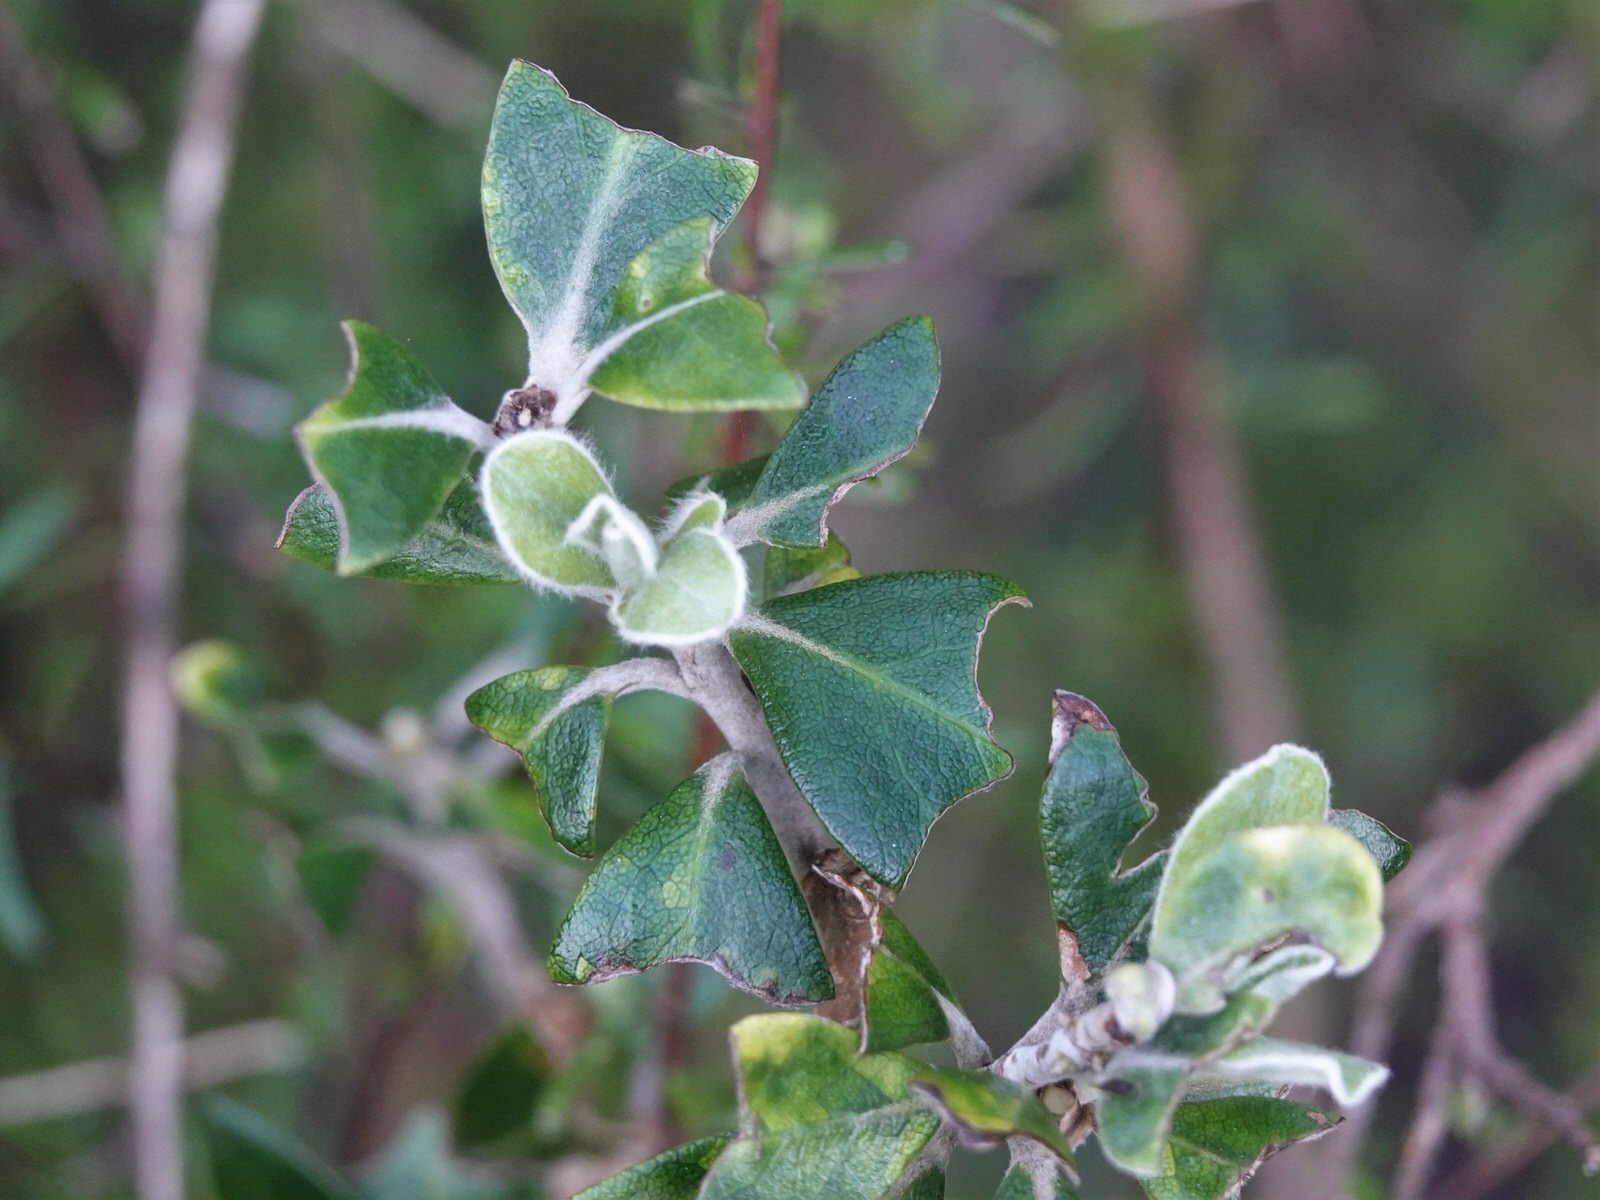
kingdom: Animalia
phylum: Chordata
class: Mammalia
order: Diprotodontia
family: Phalangeridae
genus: Trichosurus
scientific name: Trichosurus vulpecula
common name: Common brushtail
